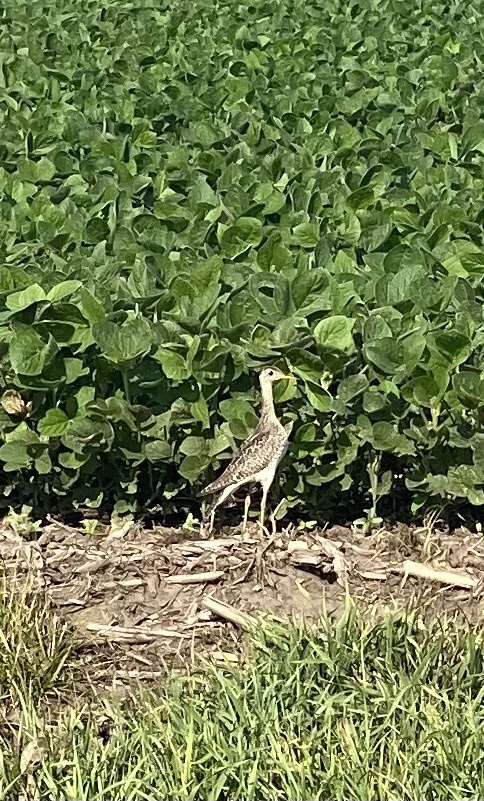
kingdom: Animalia
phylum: Chordata
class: Aves
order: Charadriiformes
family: Scolopacidae
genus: Bartramia
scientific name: Bartramia longicauda
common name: Upland sandpiper
